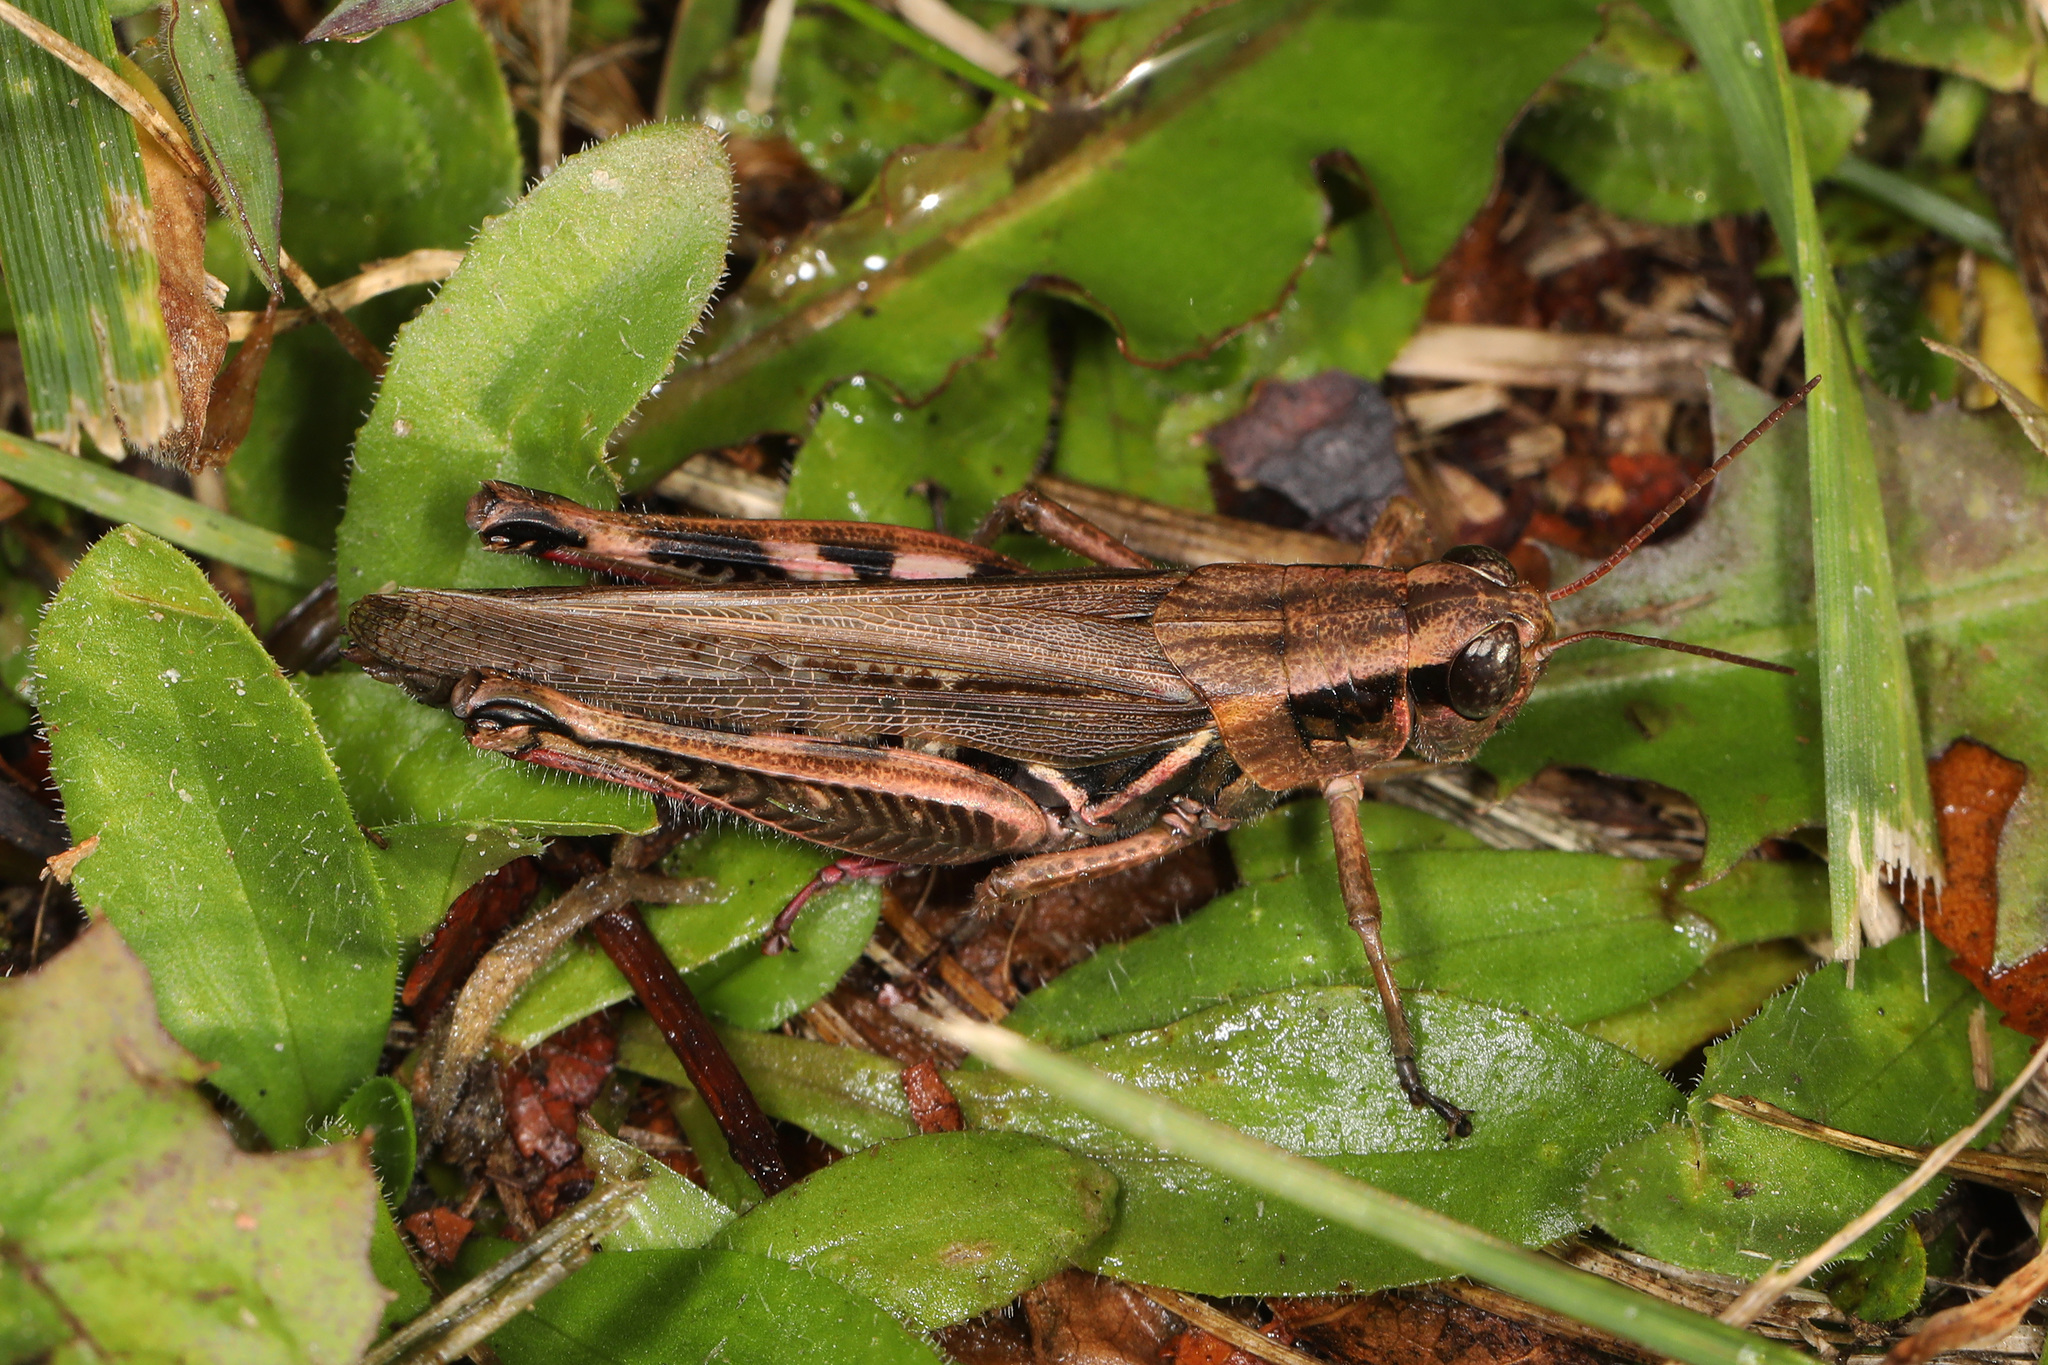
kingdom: Animalia
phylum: Arthropoda
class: Insecta
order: Orthoptera
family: Acrididae
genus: Melanoplus
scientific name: Melanoplus femurrubrum
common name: Red-legged grasshopper
